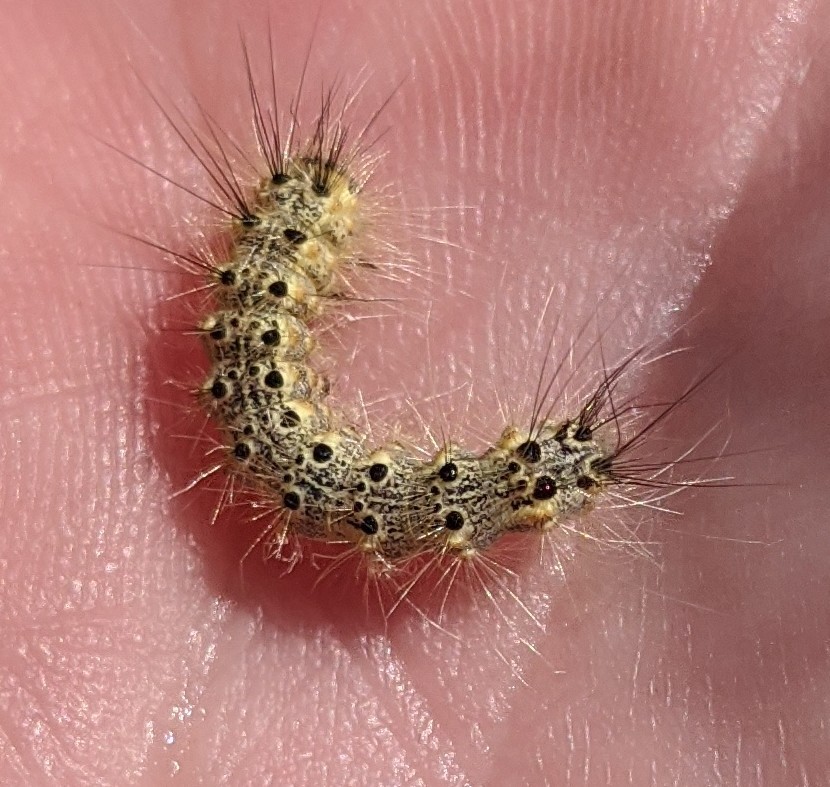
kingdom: Animalia
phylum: Arthropoda
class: Insecta
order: Lepidoptera
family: Erebidae
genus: Hyphantria
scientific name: Hyphantria cunea
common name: American white moth
